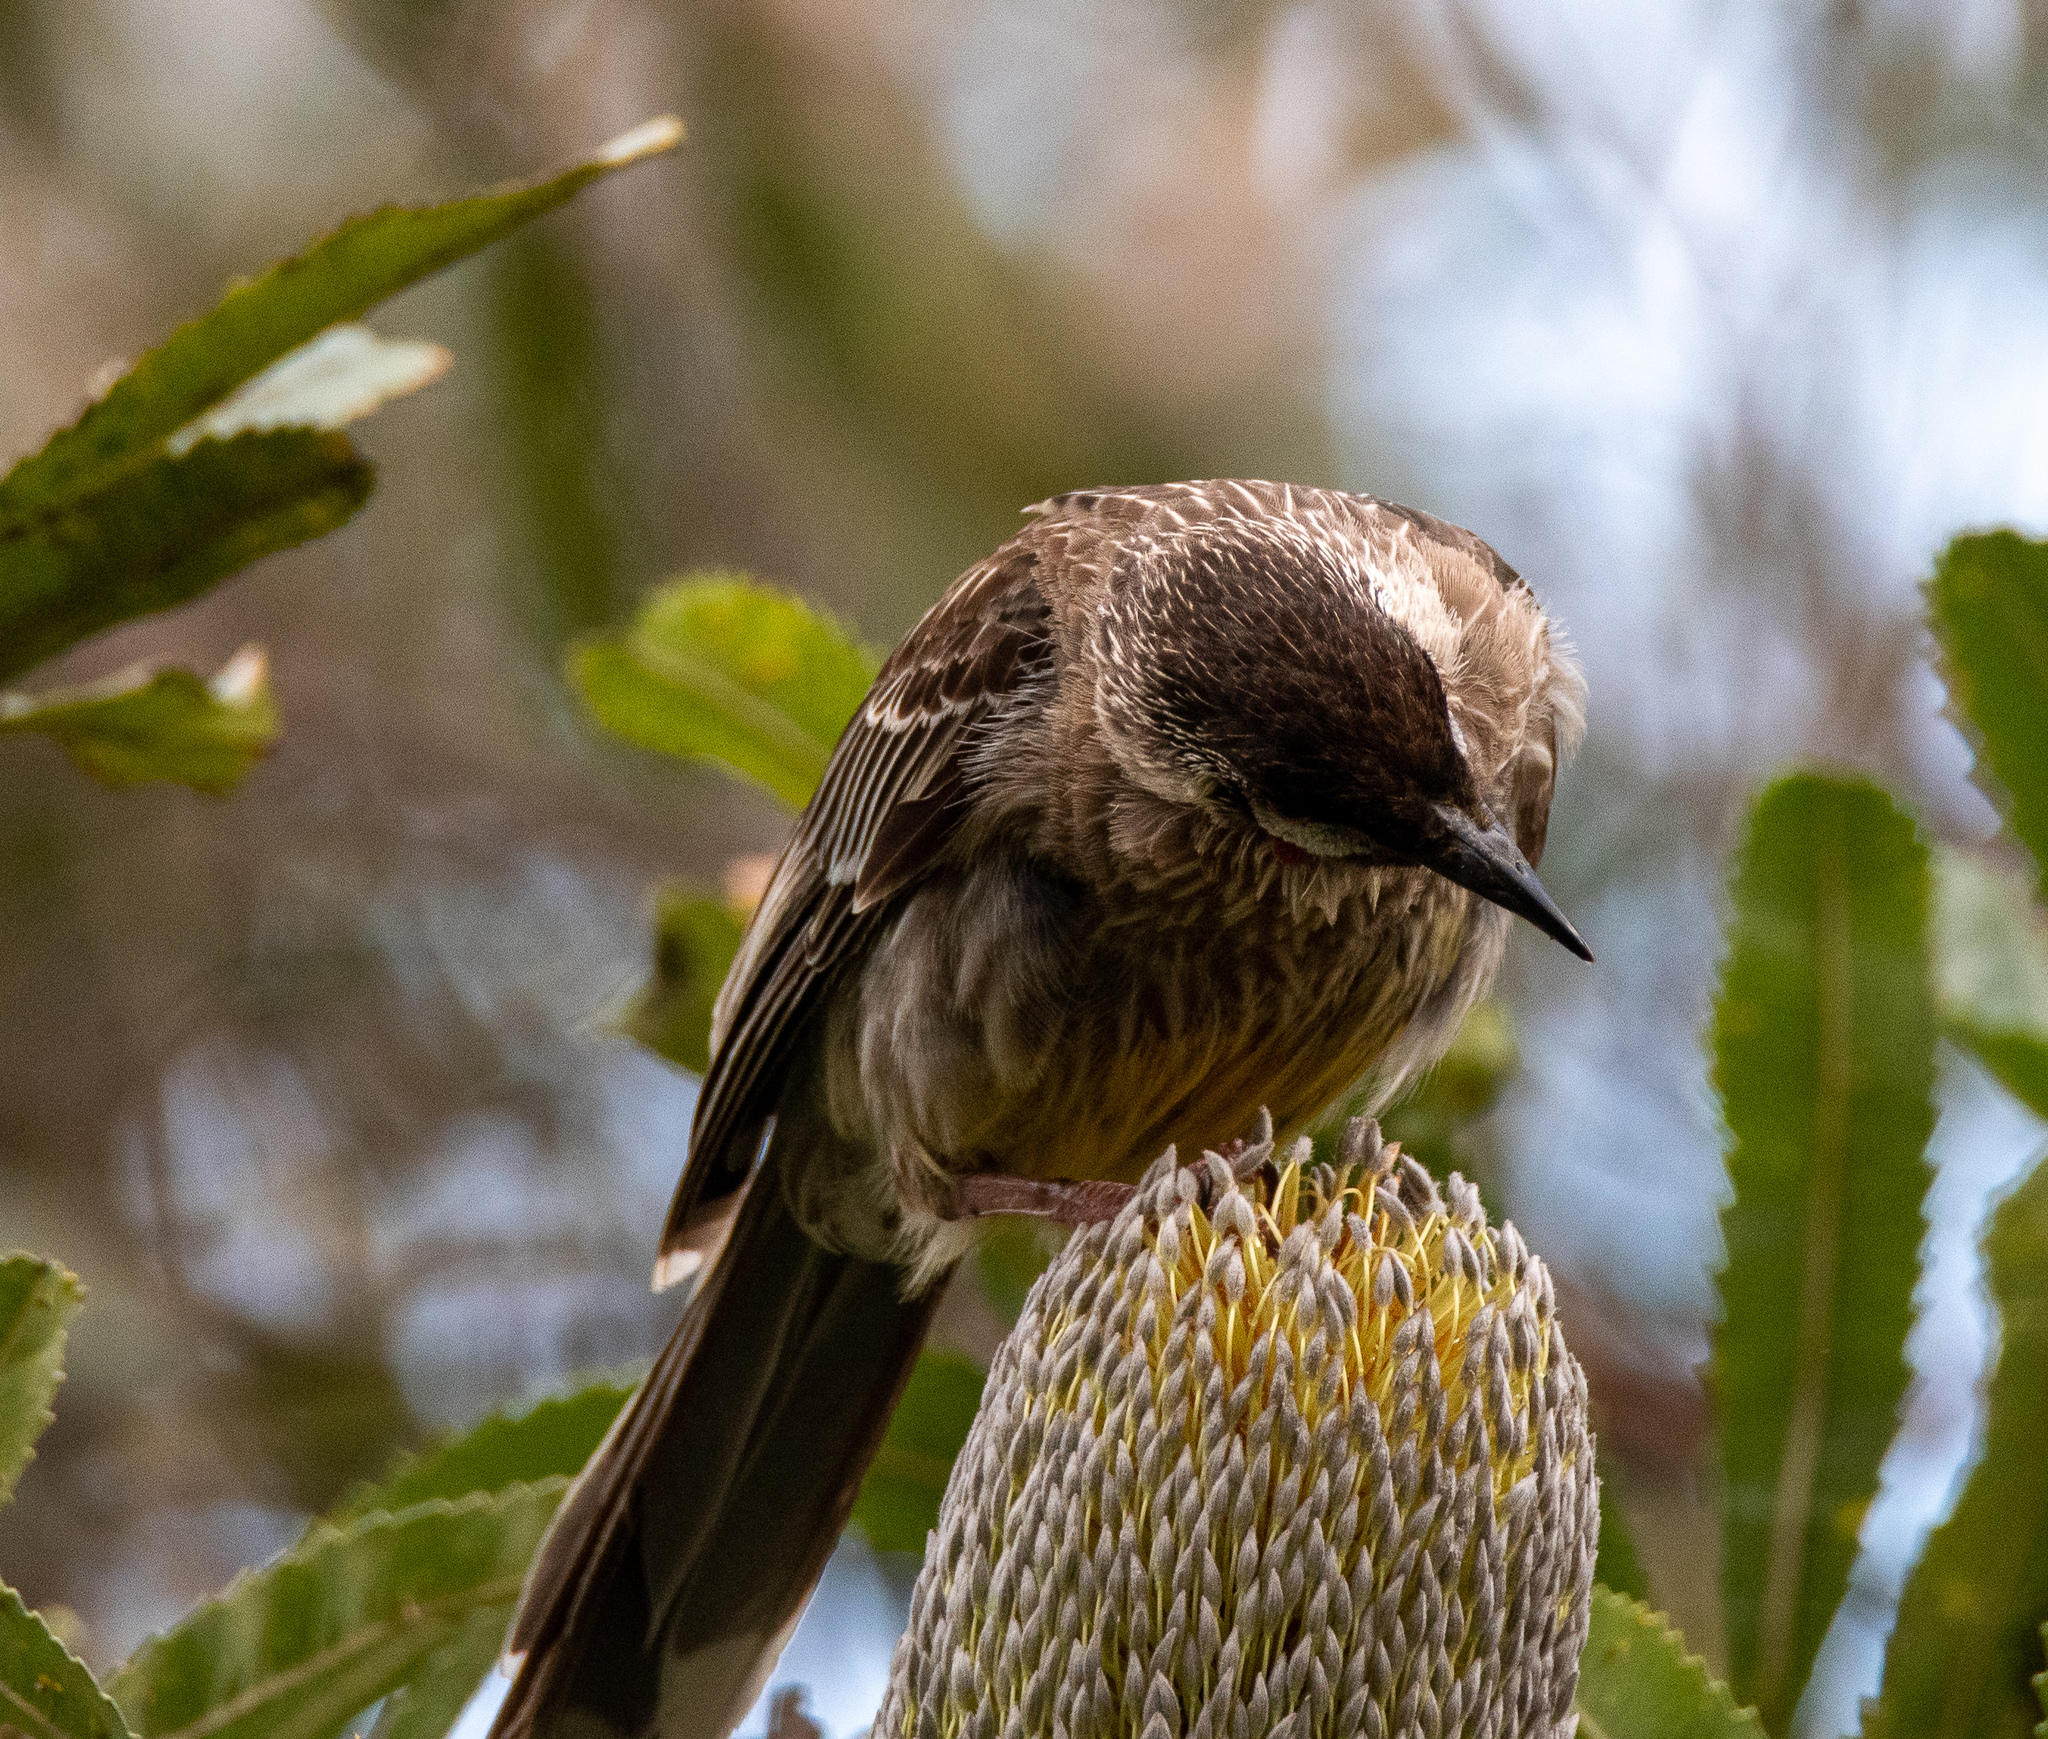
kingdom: Animalia
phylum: Chordata
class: Aves
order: Passeriformes
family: Meliphagidae
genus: Anthochaera
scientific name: Anthochaera carunculata
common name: Red wattlebird
